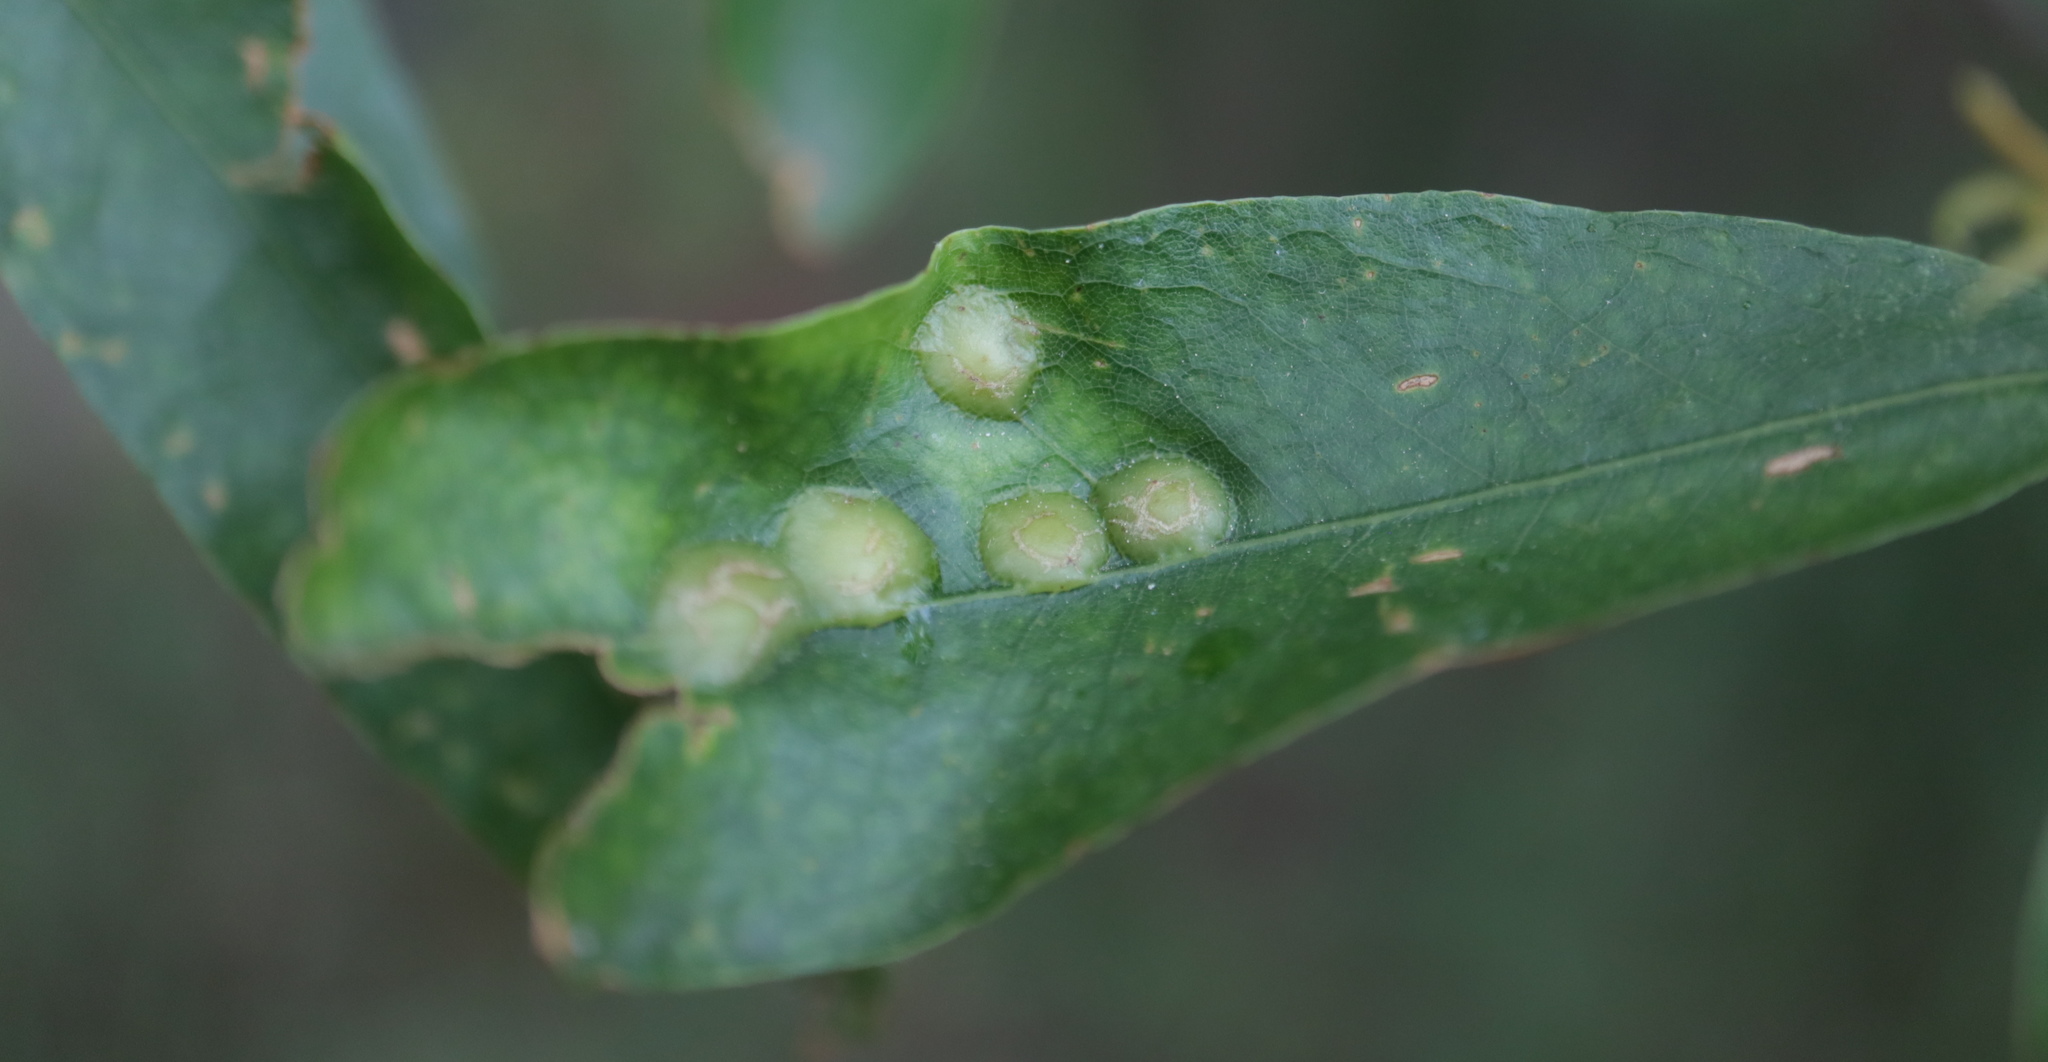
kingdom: Animalia
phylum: Arthropoda
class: Insecta
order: Diptera
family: Cecidomyiidae
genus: Polystepha
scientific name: Polystepha pilulae
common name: Oak leaf gall midge
